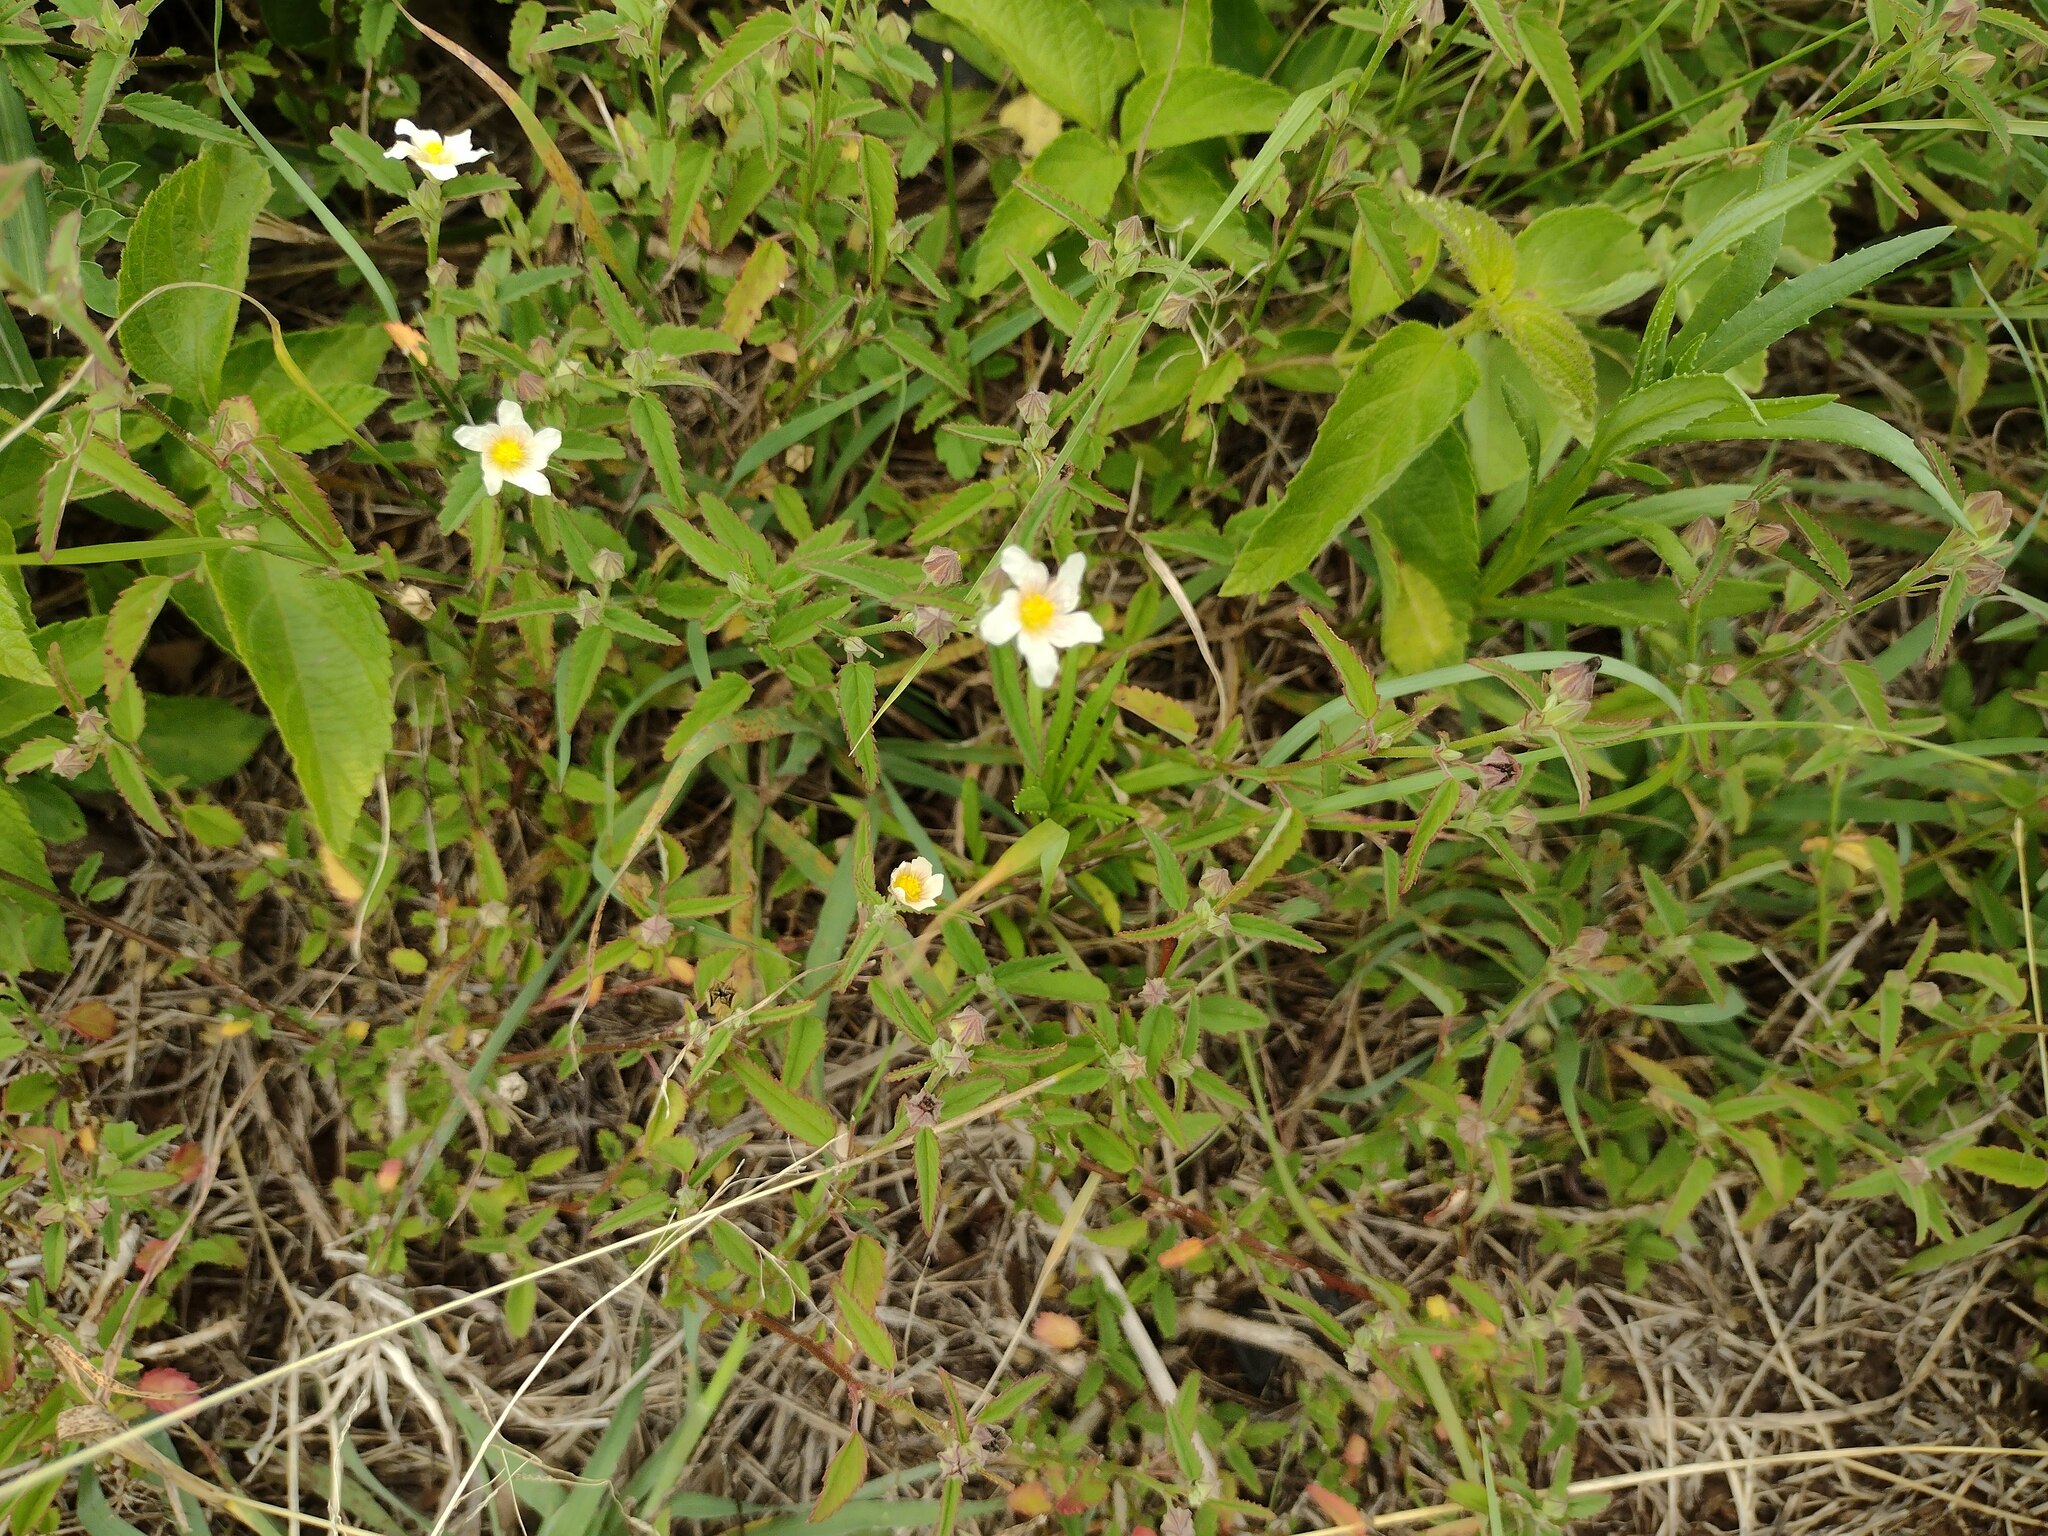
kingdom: Plantae
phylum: Tracheophyta
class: Magnoliopsida
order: Malvales
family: Malvaceae
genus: Sida
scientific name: Sida spinosa
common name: Prickly fanpetals
